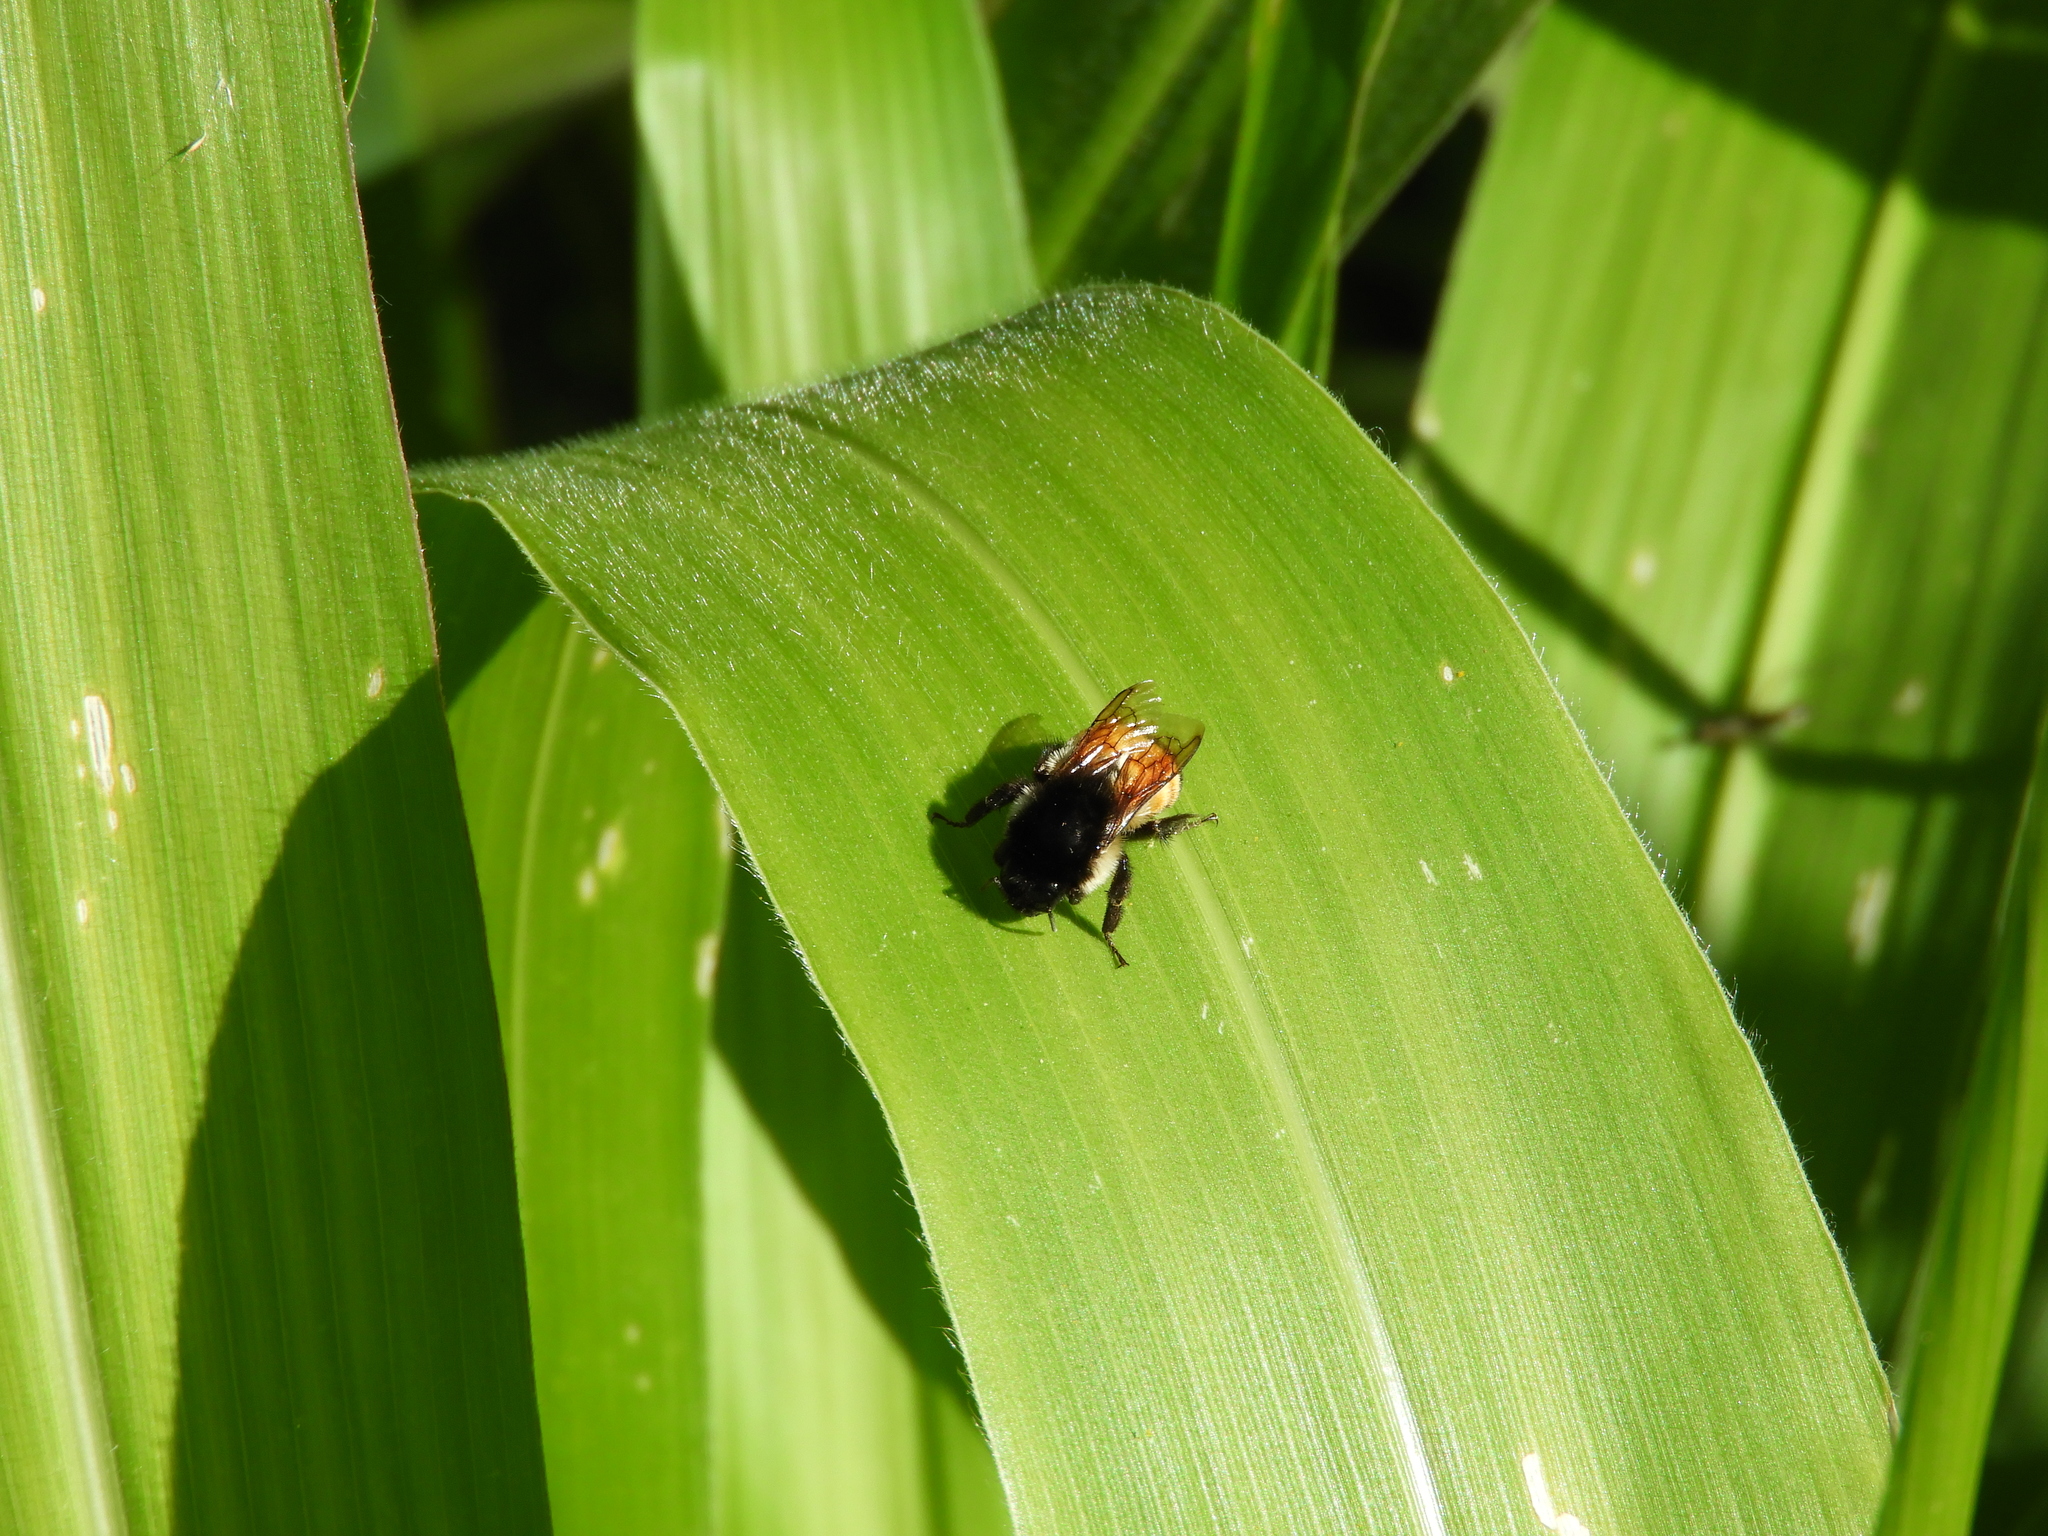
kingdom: Animalia
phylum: Arthropoda
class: Insecta
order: Hymenoptera
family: Apidae
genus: Bombus
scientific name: Bombus ephippiatus
